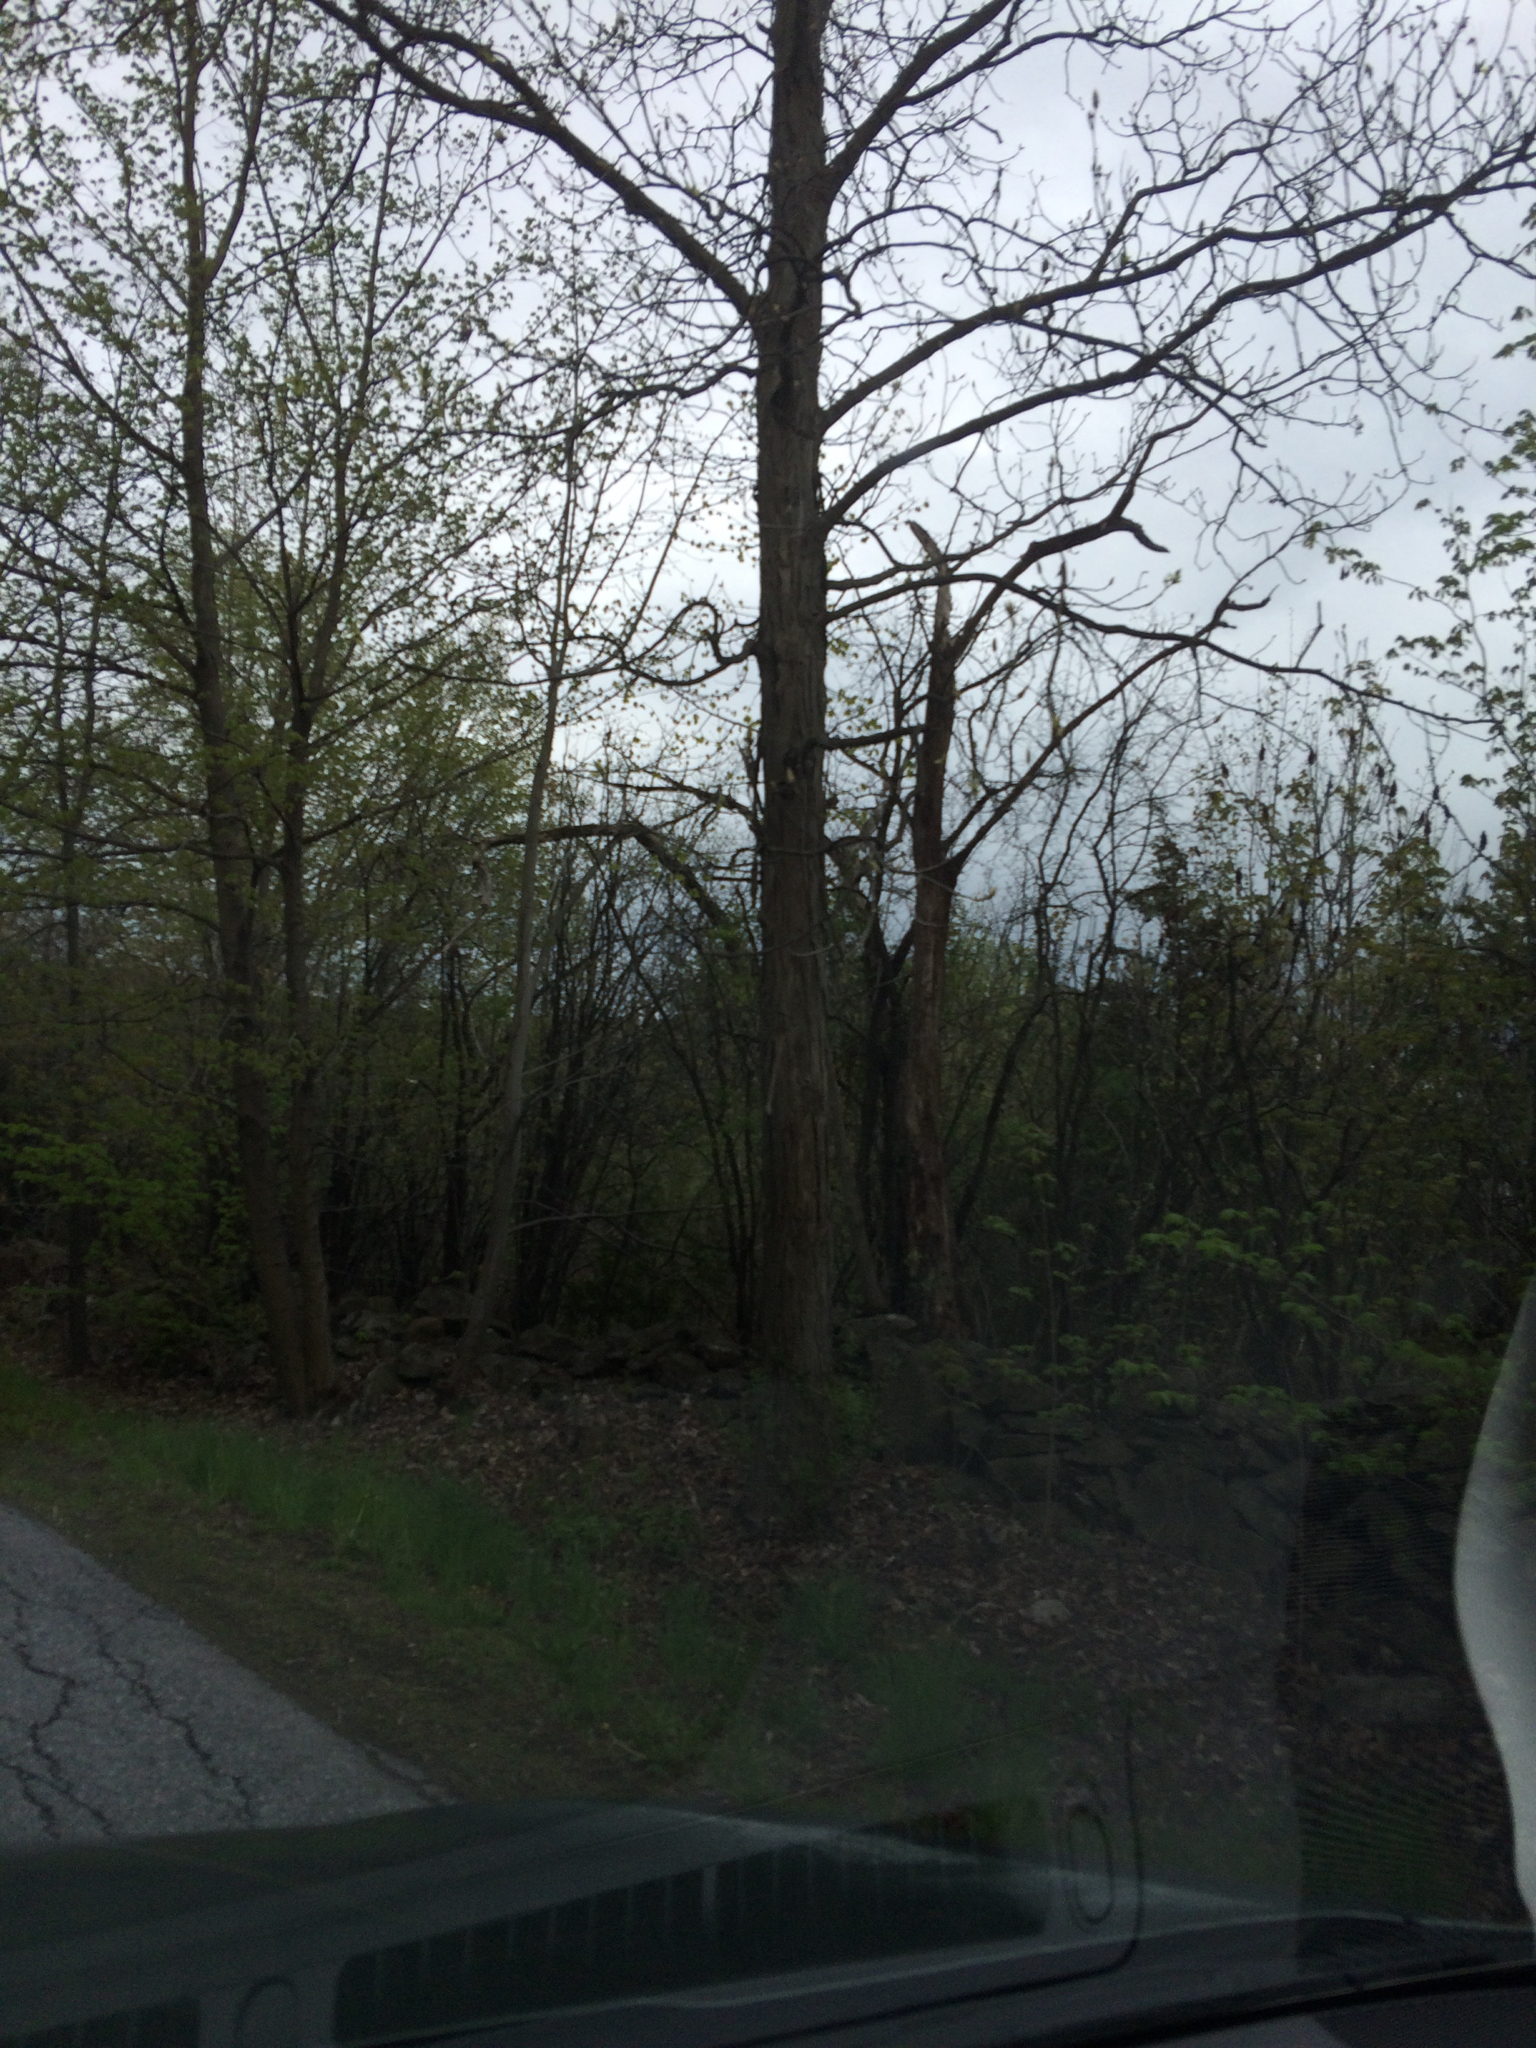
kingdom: Plantae
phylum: Tracheophyta
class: Magnoliopsida
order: Fagales
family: Juglandaceae
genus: Carya
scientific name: Carya ovata
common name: Shagbark hickory
